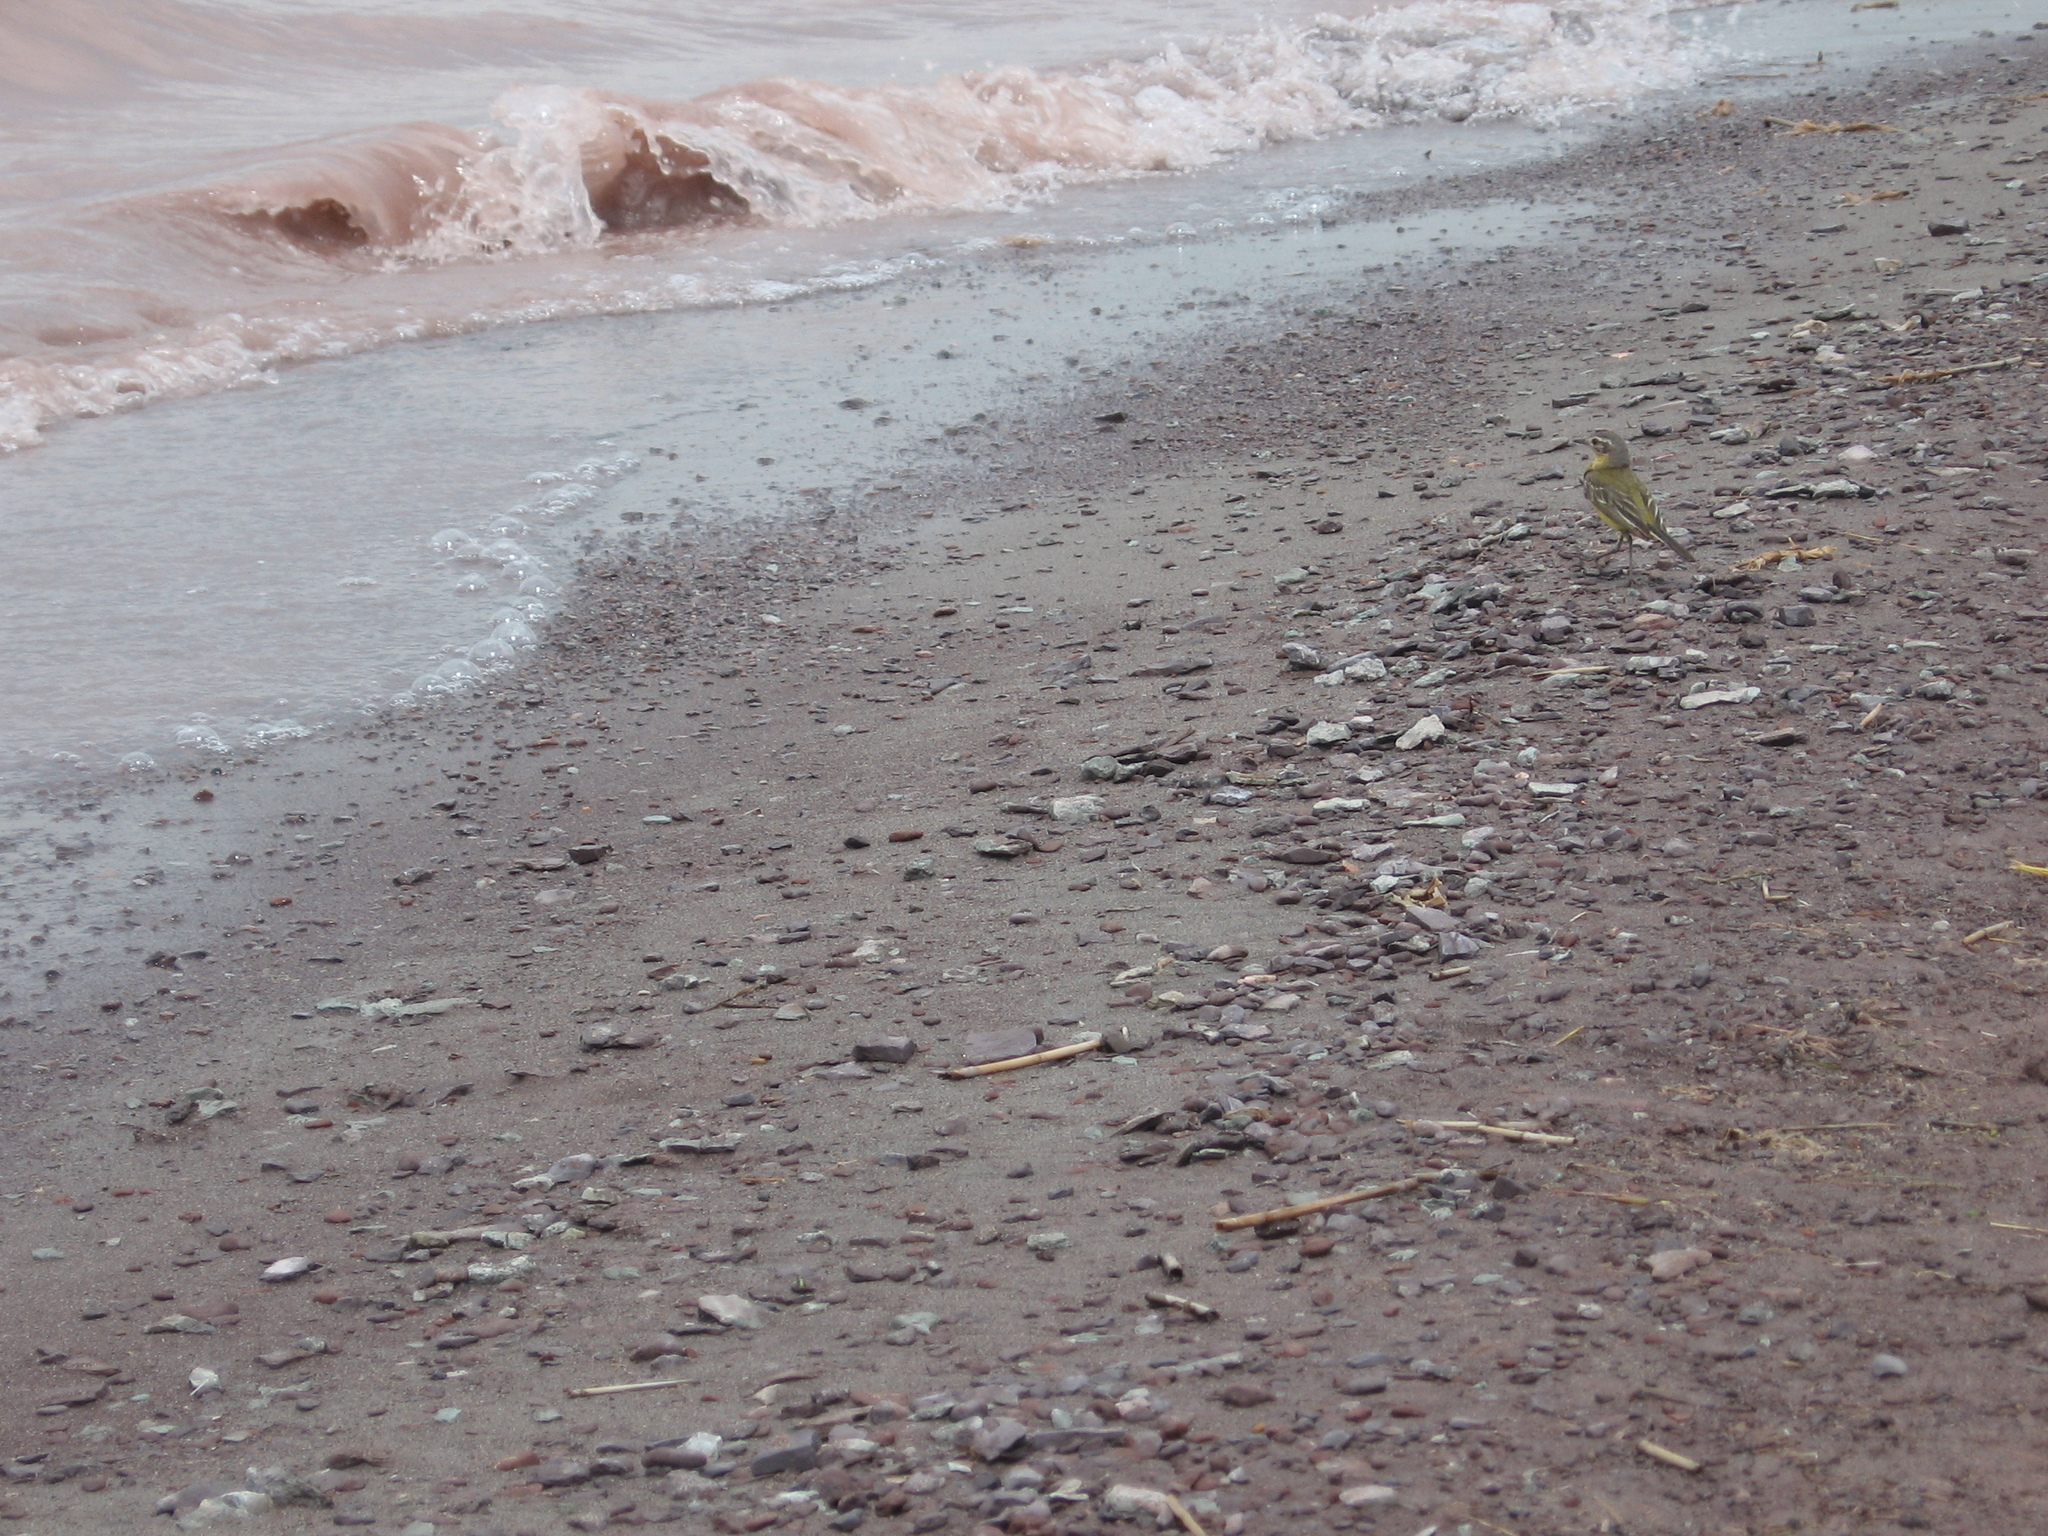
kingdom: Animalia
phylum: Chordata
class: Aves
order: Passeriformes
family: Motacillidae
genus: Motacilla
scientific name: Motacilla flava
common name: Western yellow wagtail
